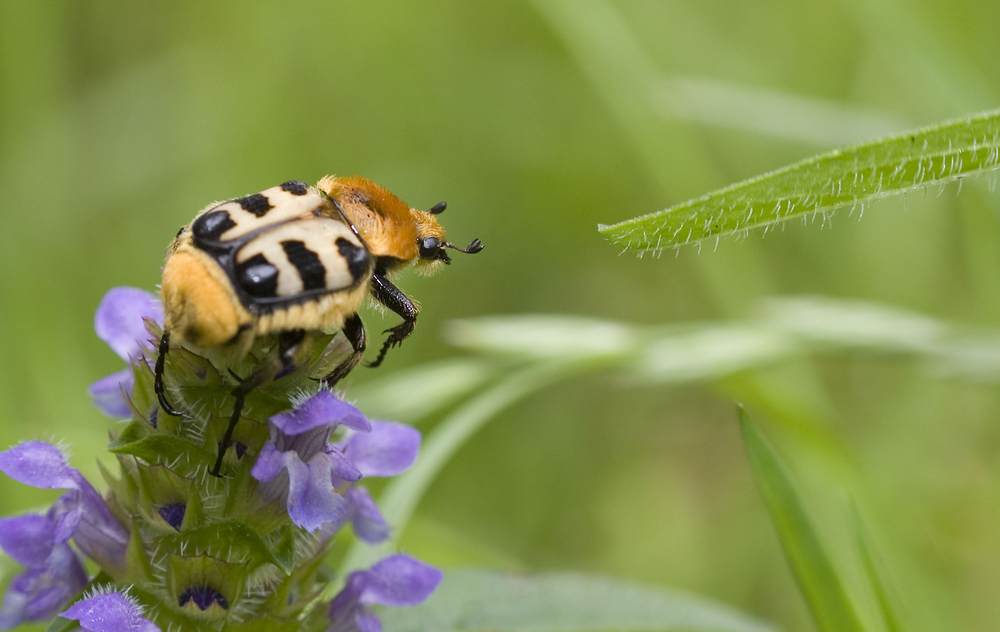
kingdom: Animalia
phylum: Arthropoda
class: Insecta
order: Coleoptera
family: Scarabaeidae
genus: Trichius
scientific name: Trichius gallicus
